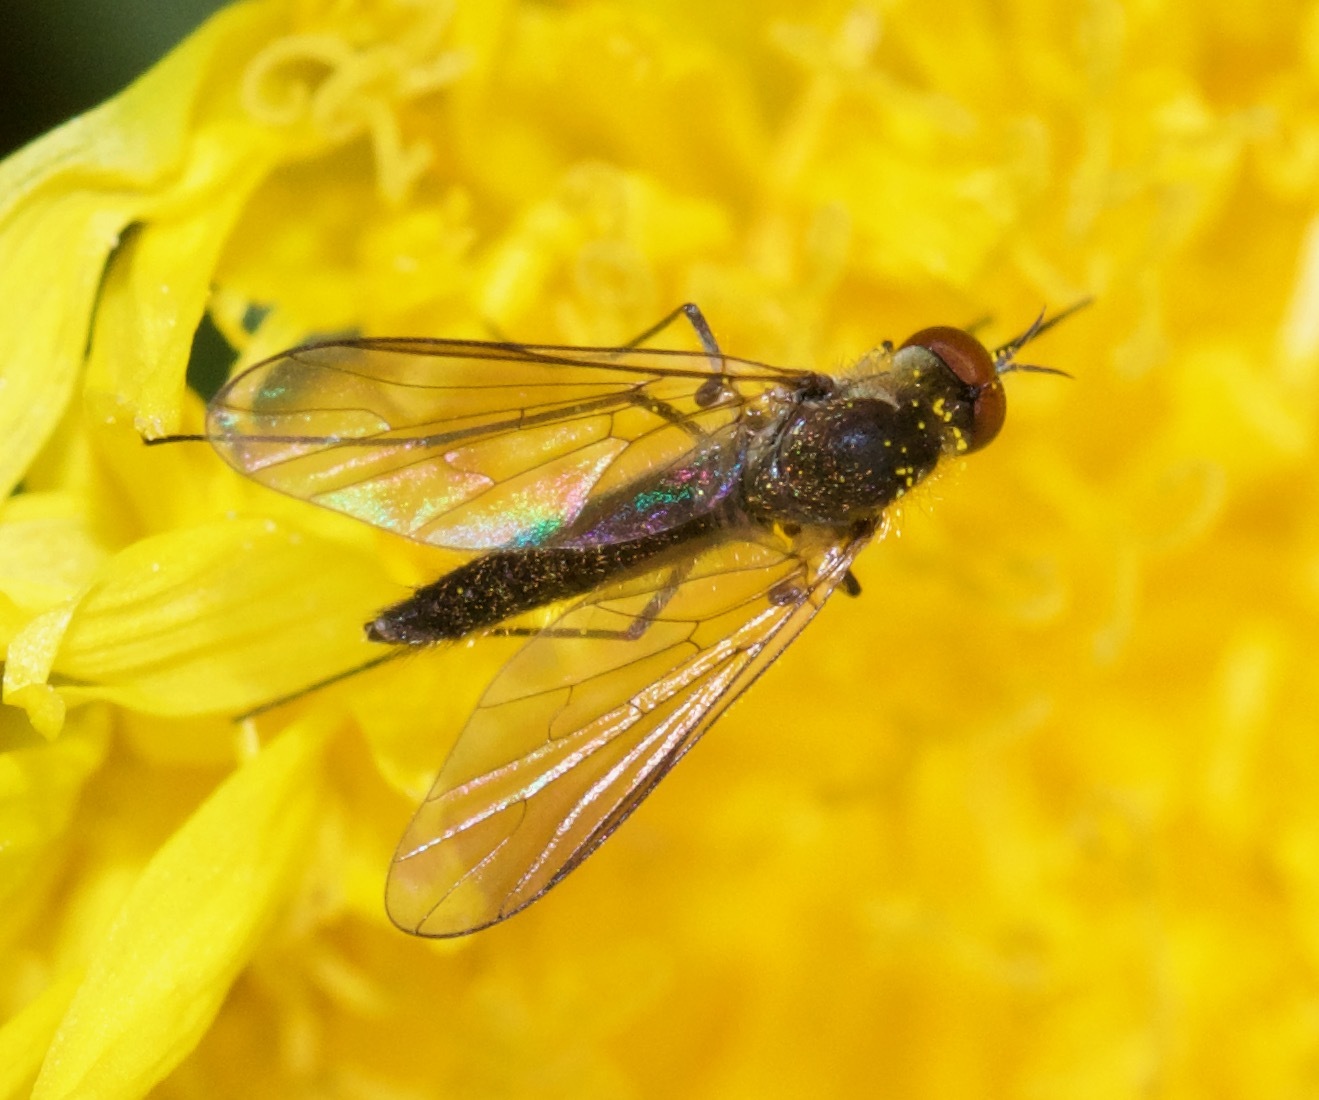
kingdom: Animalia
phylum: Arthropoda
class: Insecta
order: Diptera
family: Bombyliidae
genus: Geron
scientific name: Geron calvus
